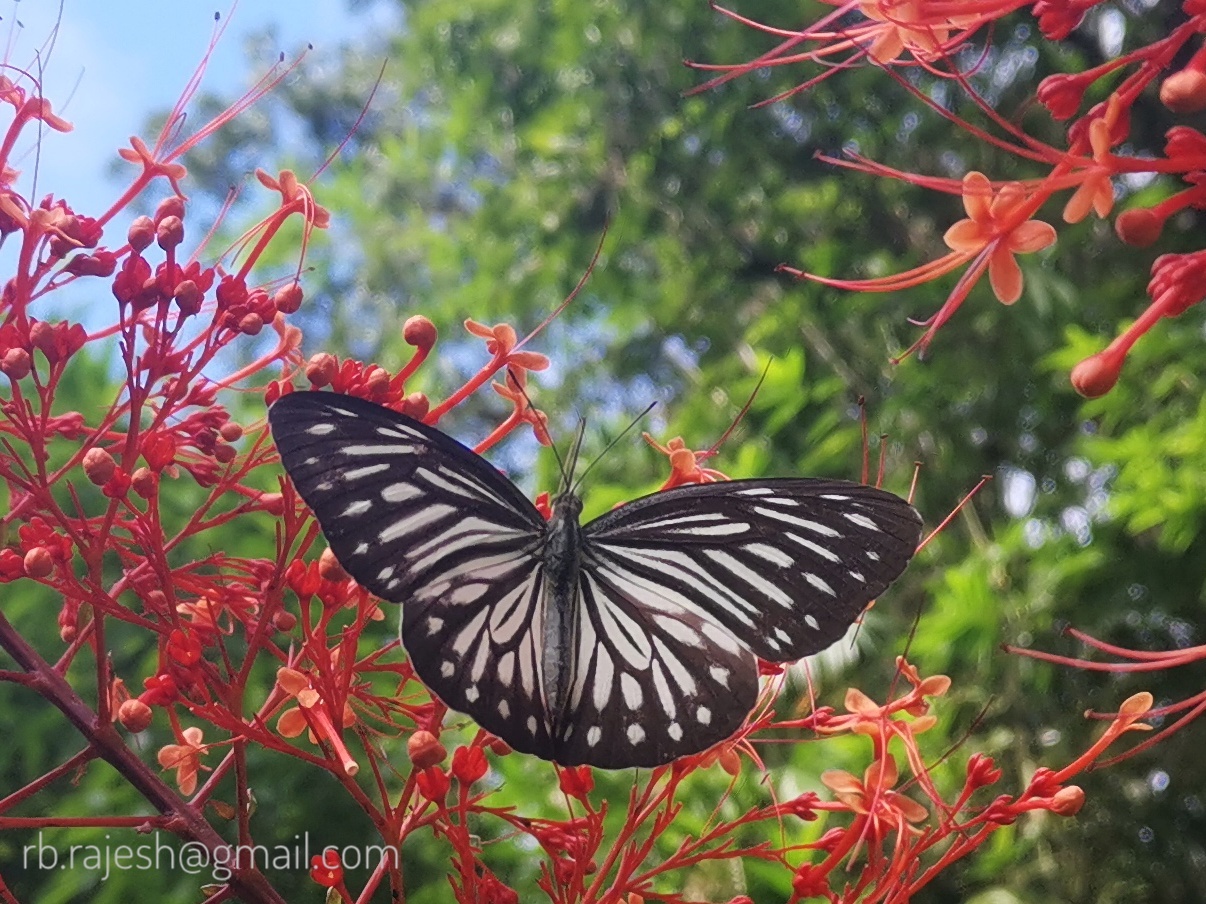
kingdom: Animalia
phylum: Arthropoda
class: Insecta
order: Lepidoptera
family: Pieridae
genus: Pareronia
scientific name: Pareronia ceylanica
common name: Dark wanderer
